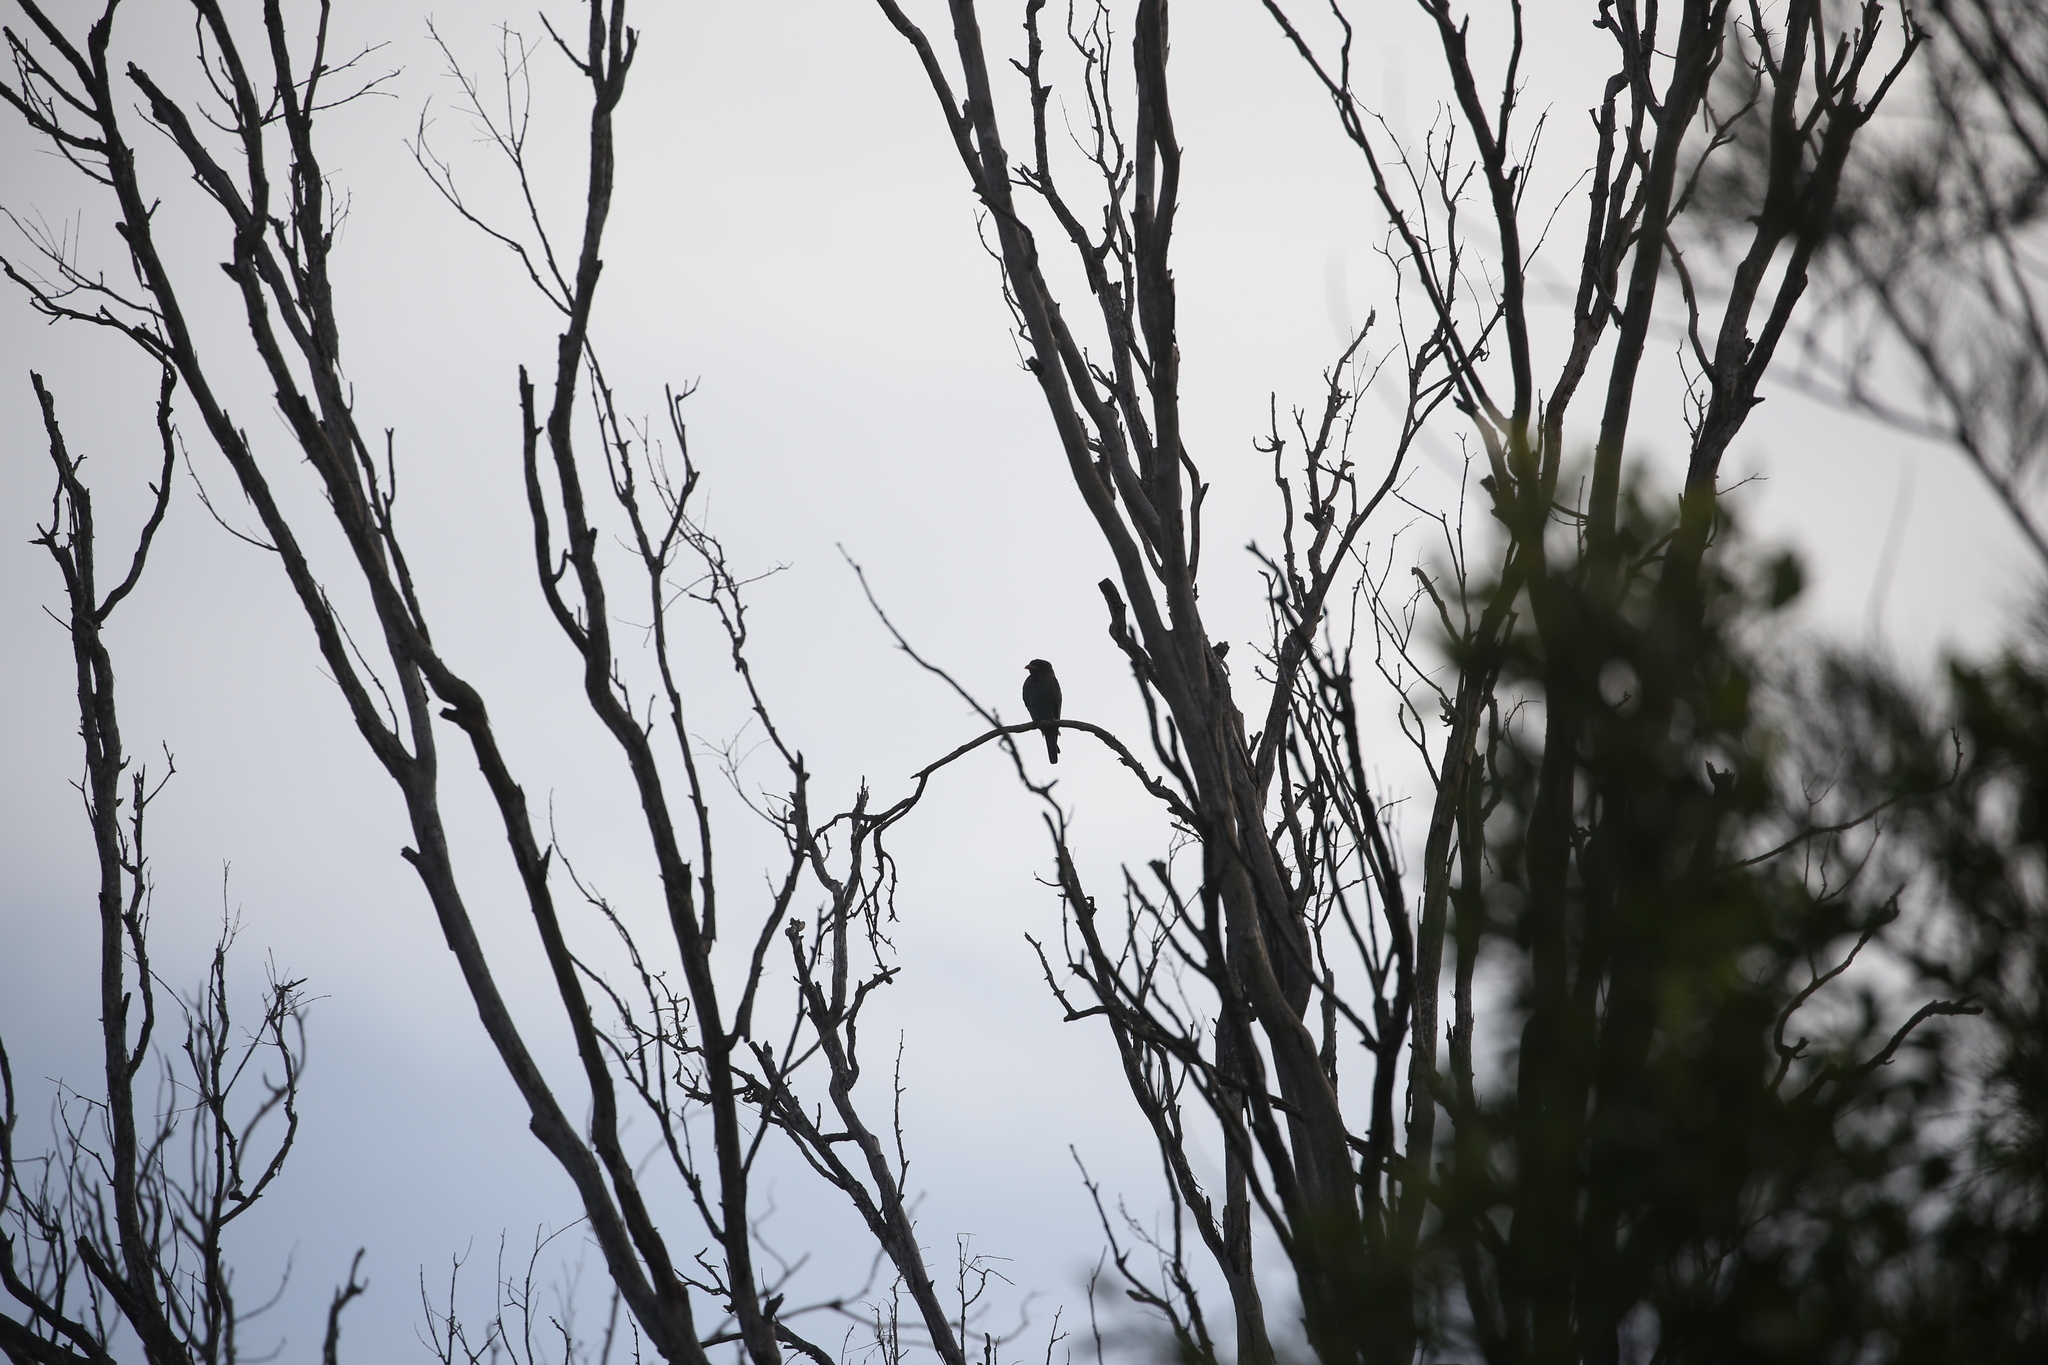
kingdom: Animalia
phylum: Chordata
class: Aves
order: Coraciiformes
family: Coraciidae
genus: Eurystomus
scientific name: Eurystomus orientalis
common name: Oriental dollarbird
